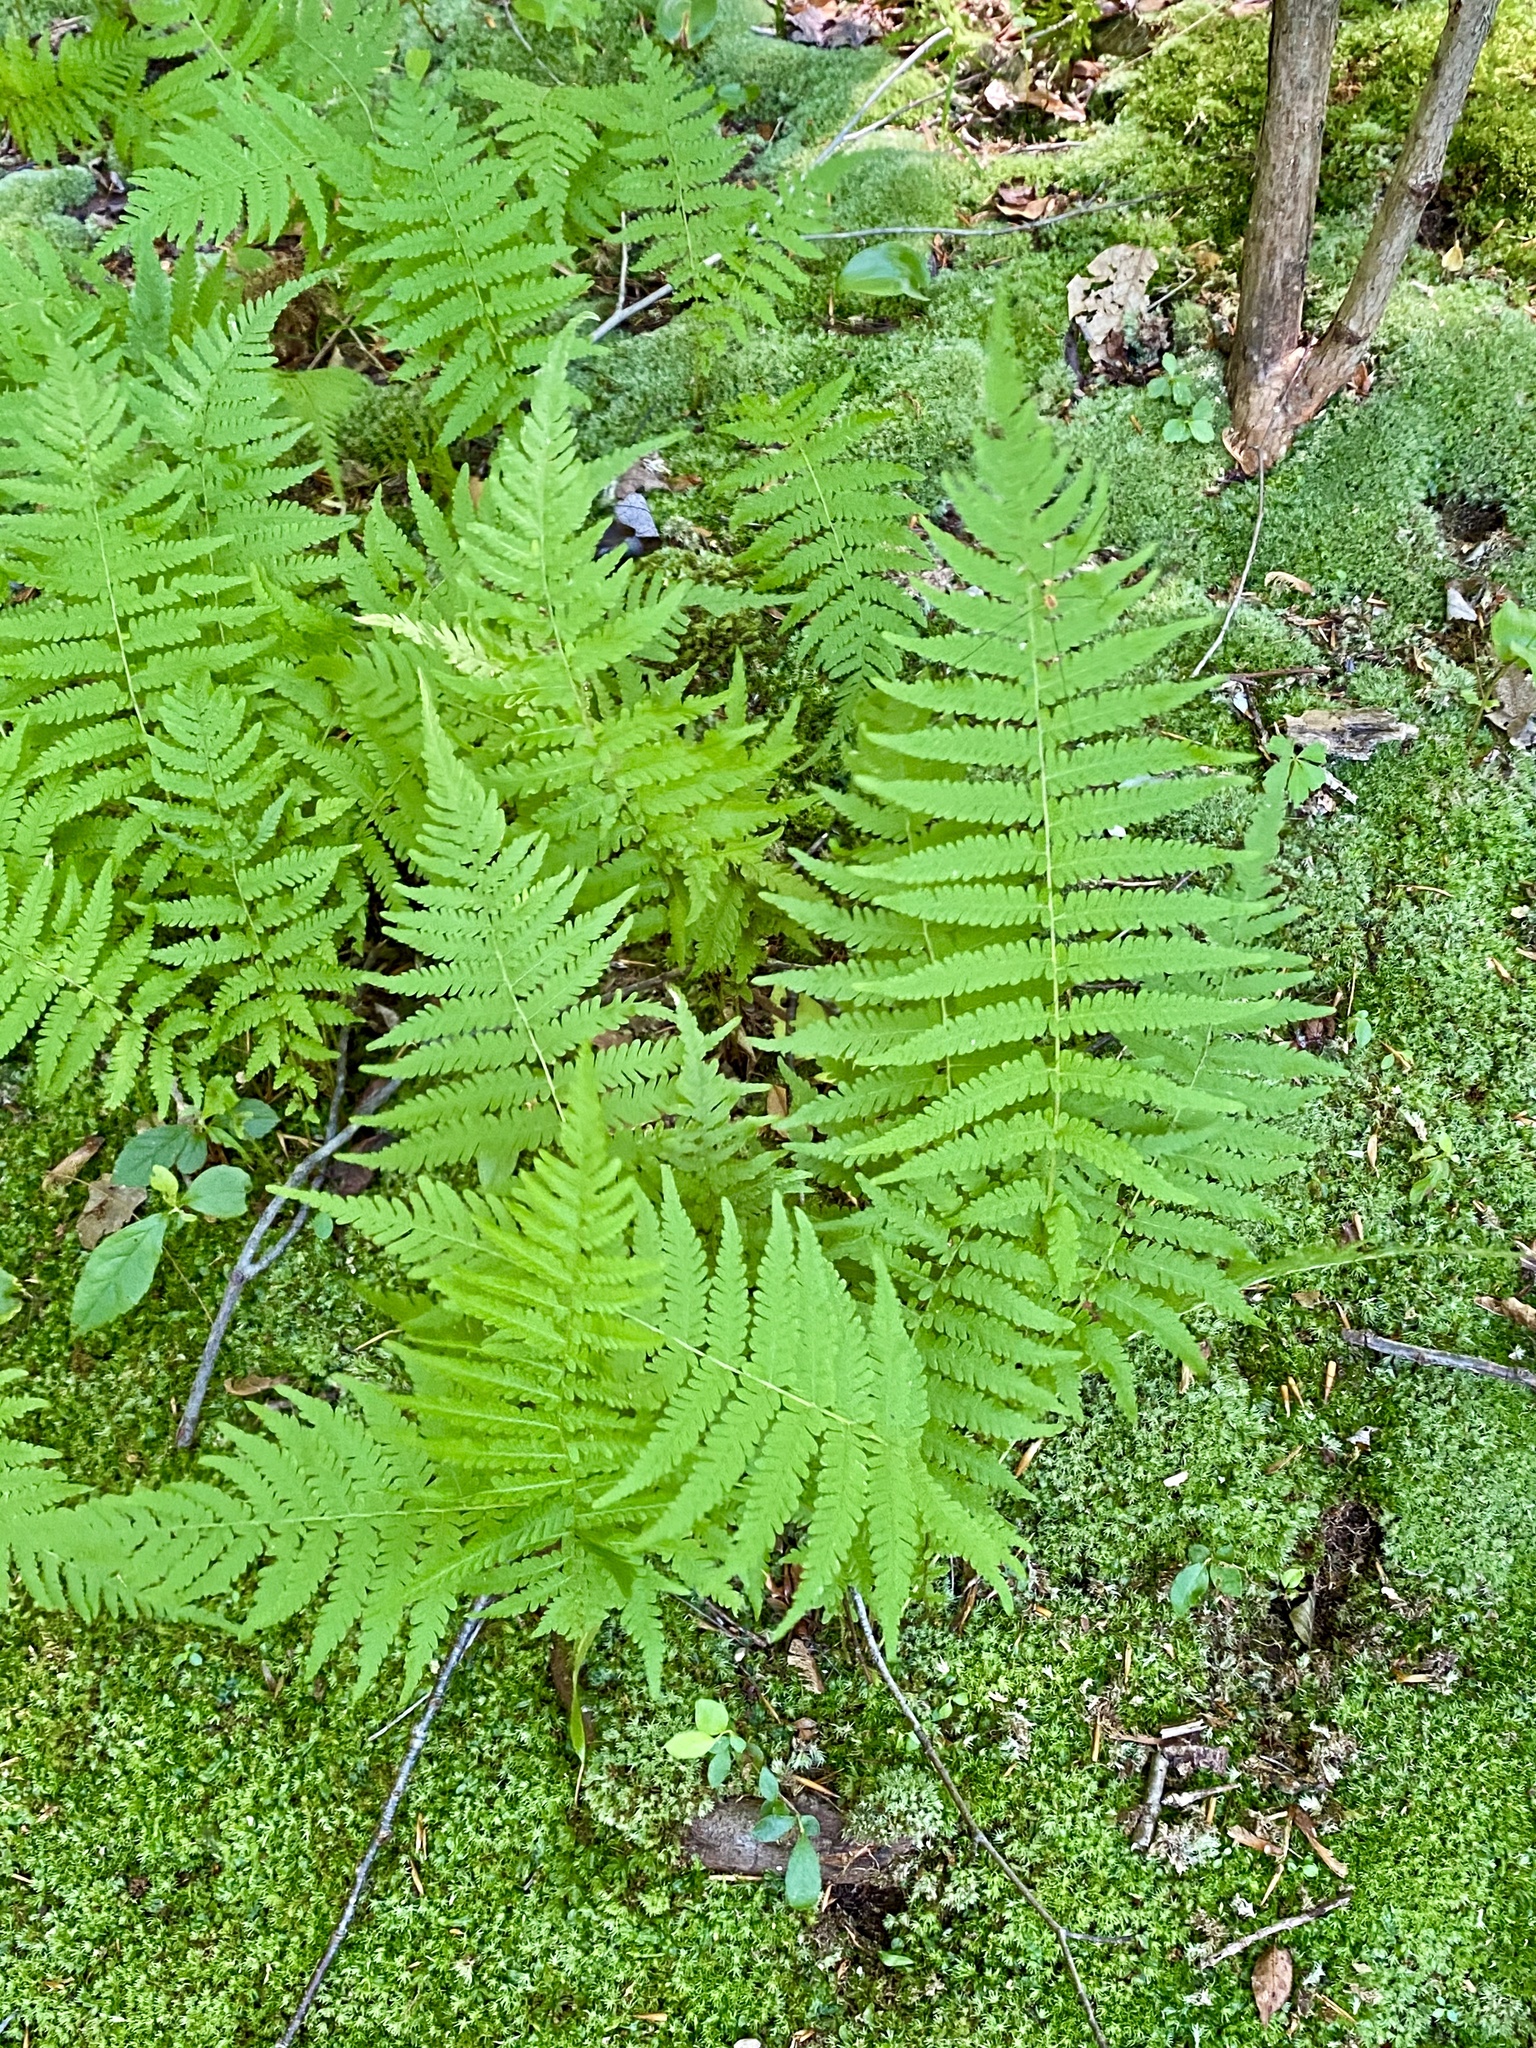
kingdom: Plantae
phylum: Tracheophyta
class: Polypodiopsida
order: Polypodiales
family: Thelypteridaceae
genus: Amauropelta
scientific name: Amauropelta noveboracensis
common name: New york fern
